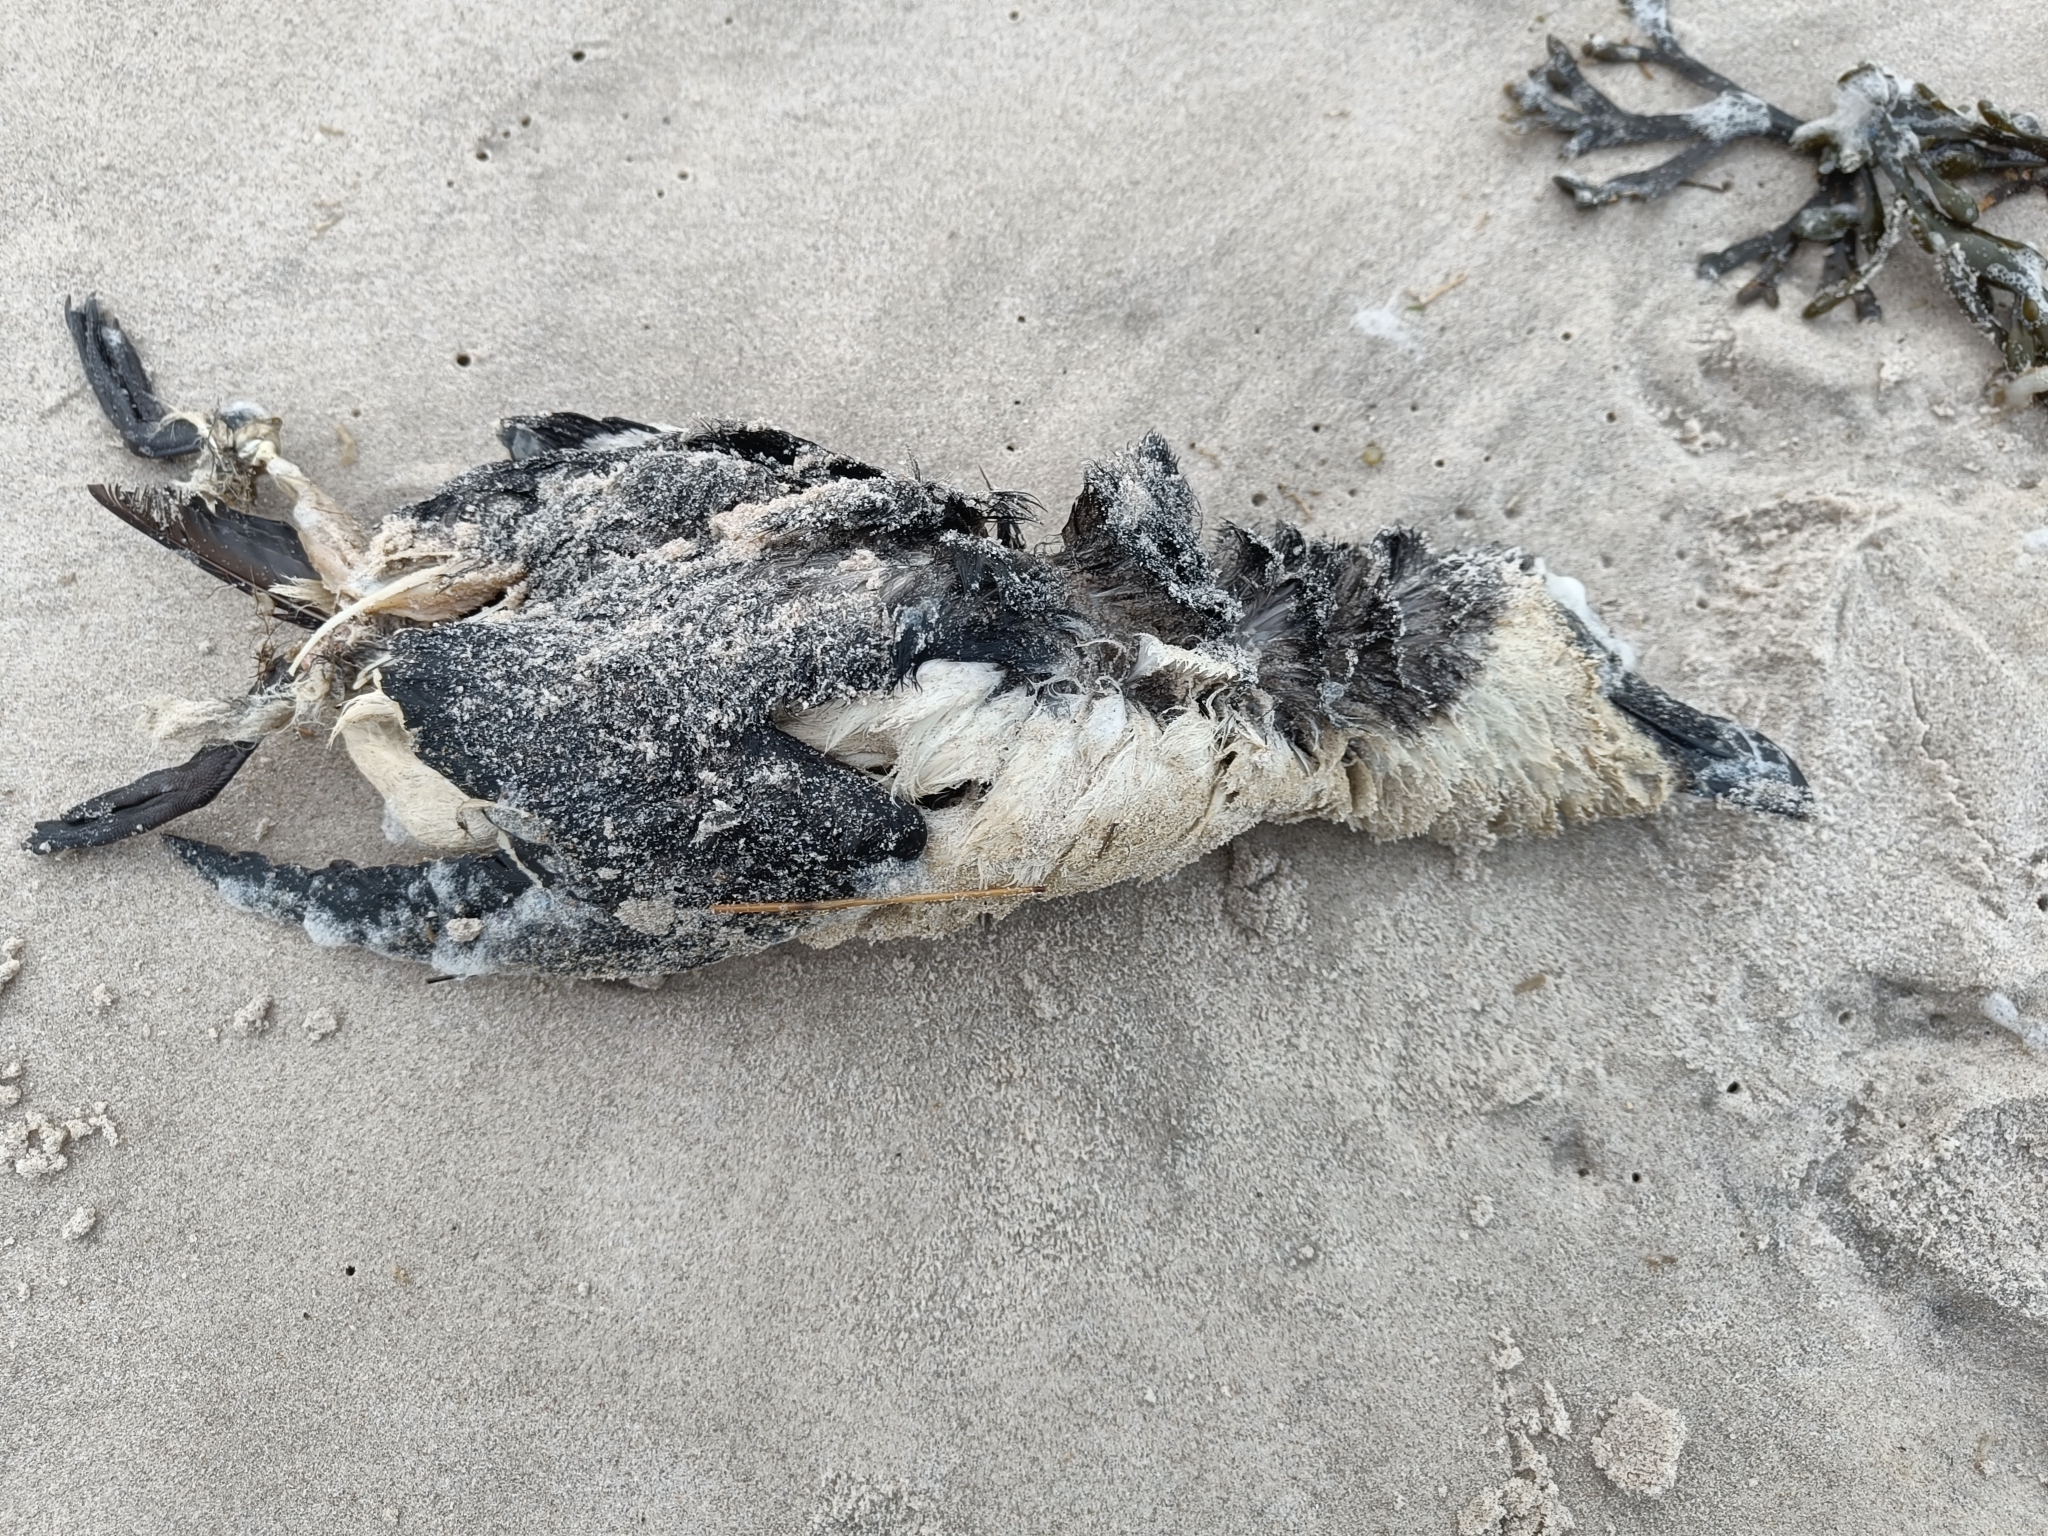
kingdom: Animalia
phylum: Chordata
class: Aves
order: Charadriiformes
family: Alcidae
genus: Alca
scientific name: Alca torda
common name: Razorbill
